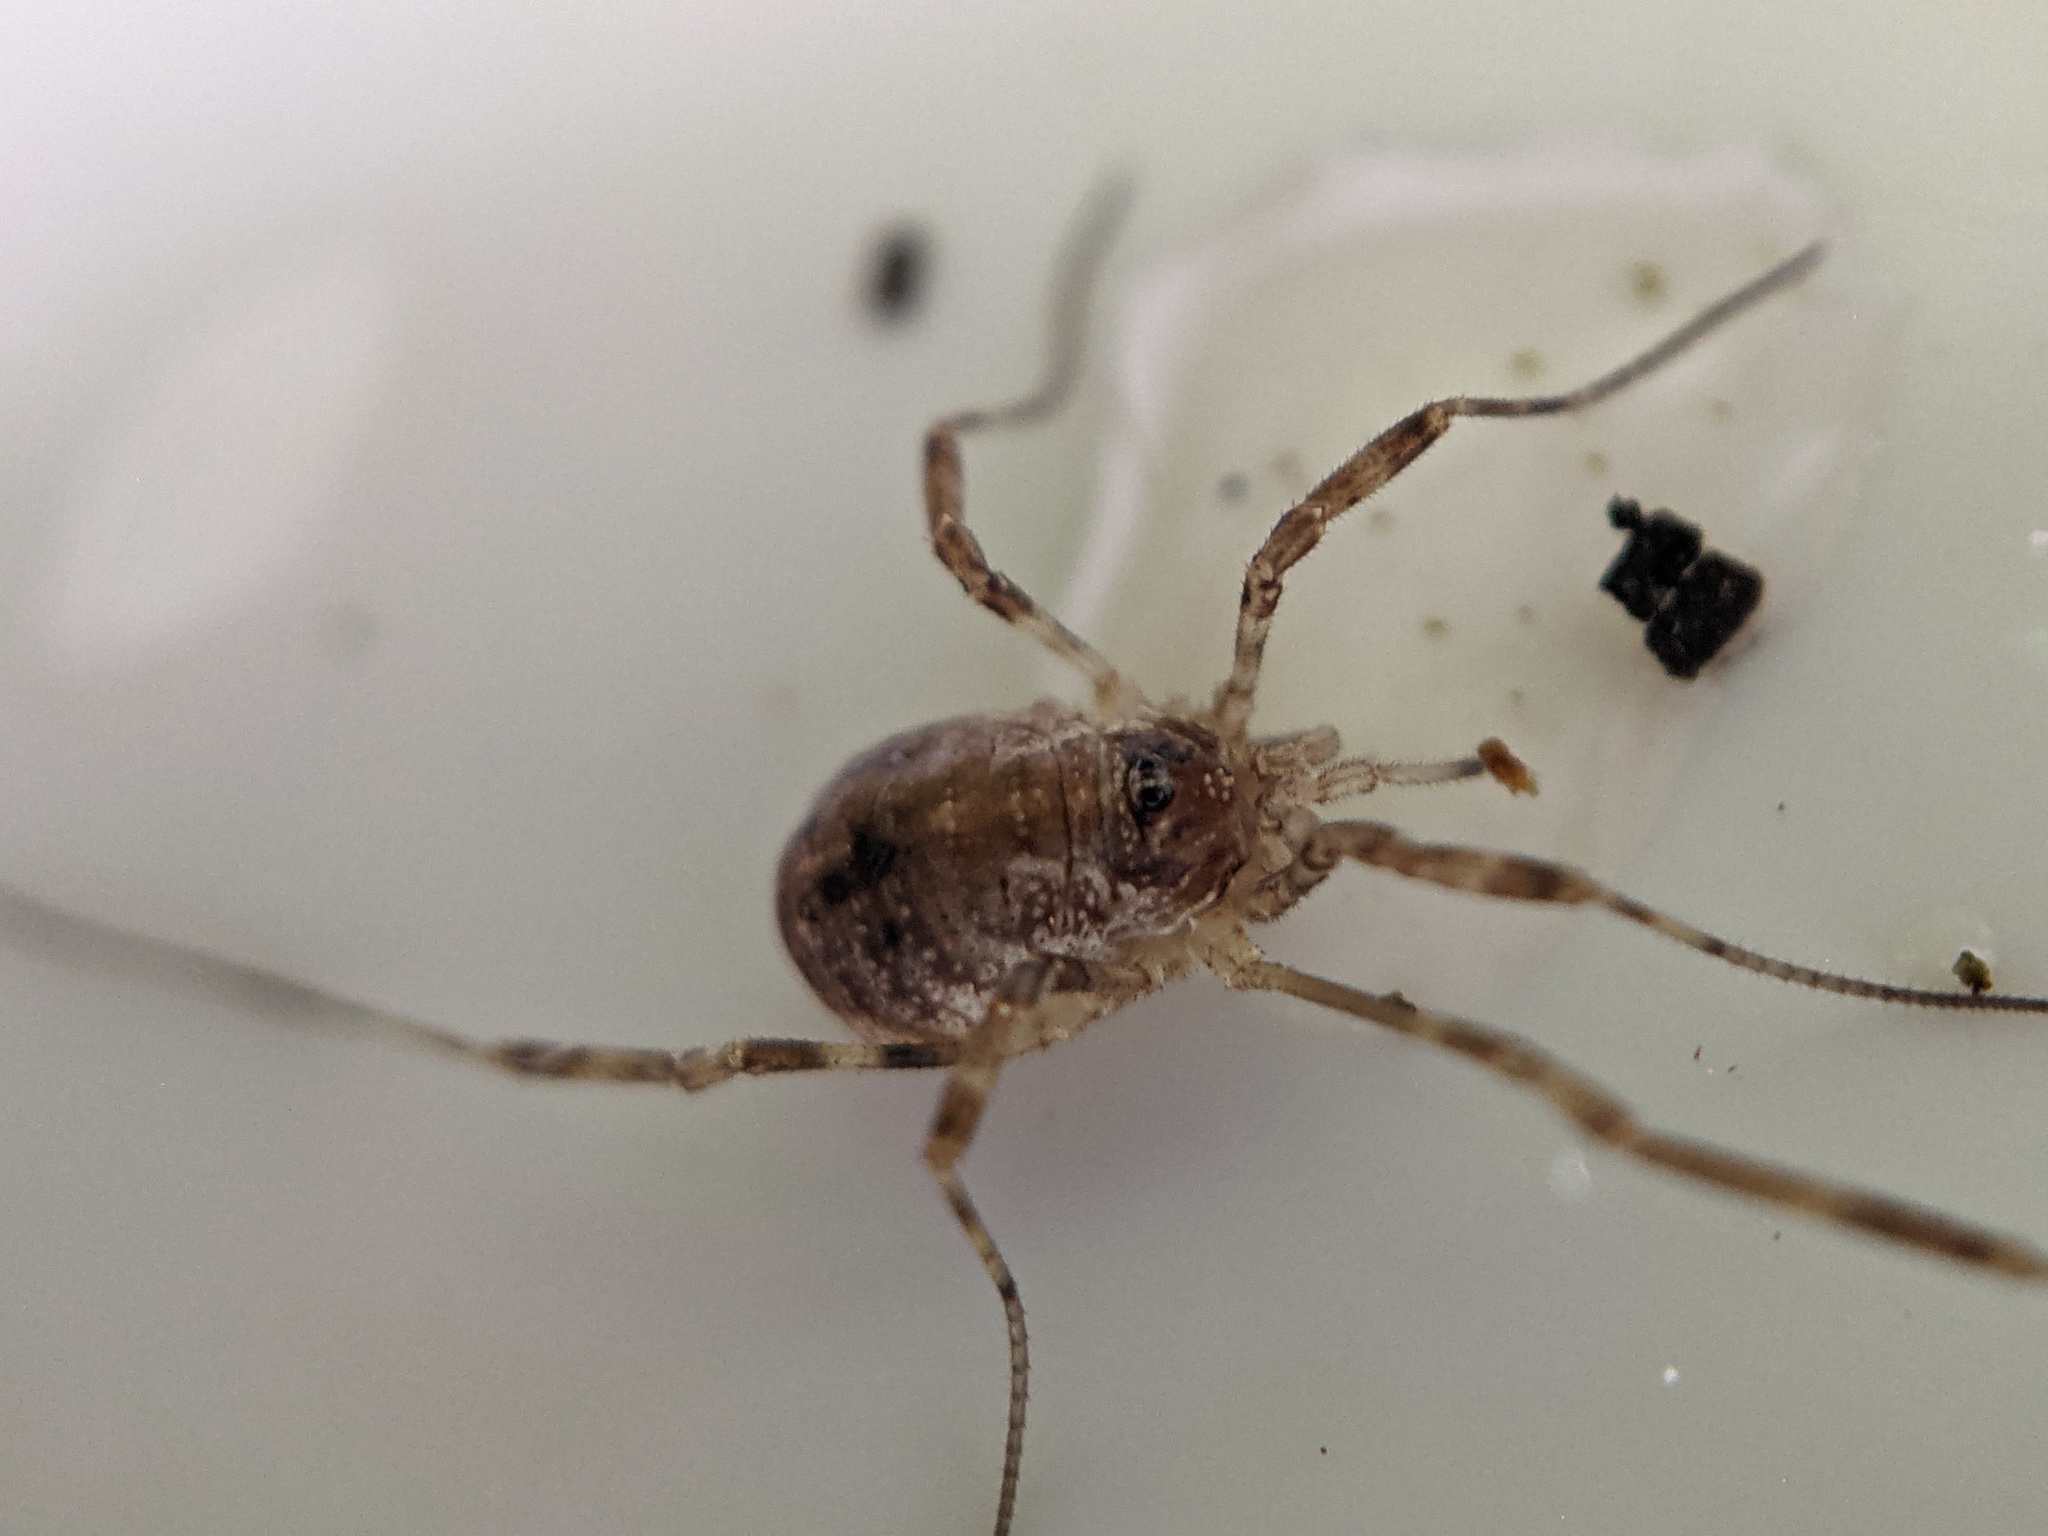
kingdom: Animalia
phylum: Arthropoda
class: Arachnida
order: Opiliones
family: Phalangiidae
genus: Paroligolophus
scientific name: Paroligolophus agrestis
